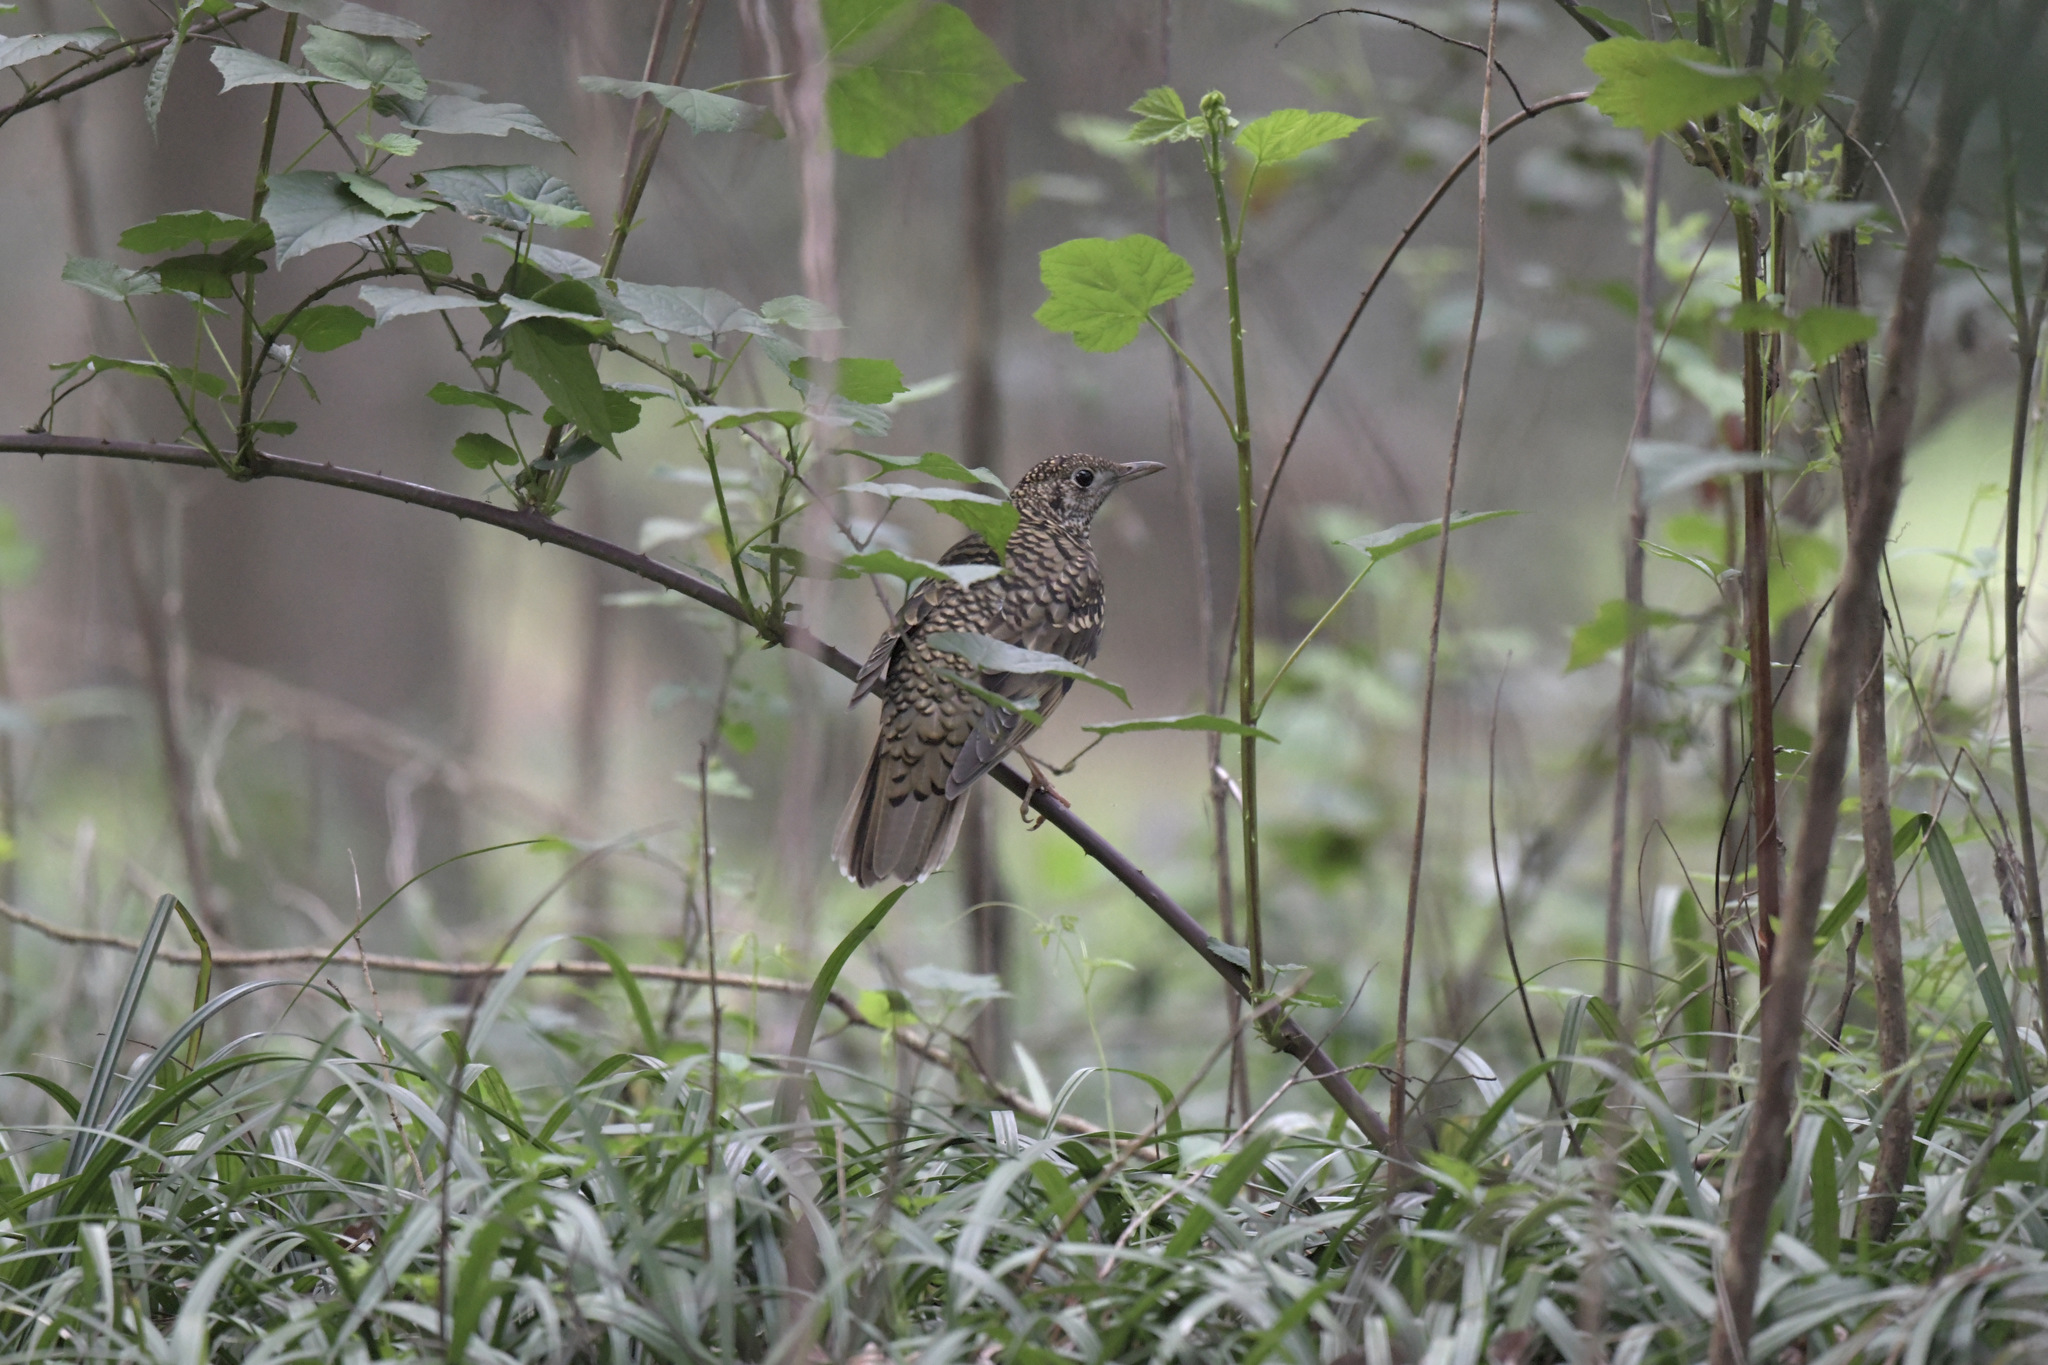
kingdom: Animalia
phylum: Chordata
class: Aves
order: Passeriformes
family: Turdidae
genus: Zoothera
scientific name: Zoothera aurea
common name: White's thrush
